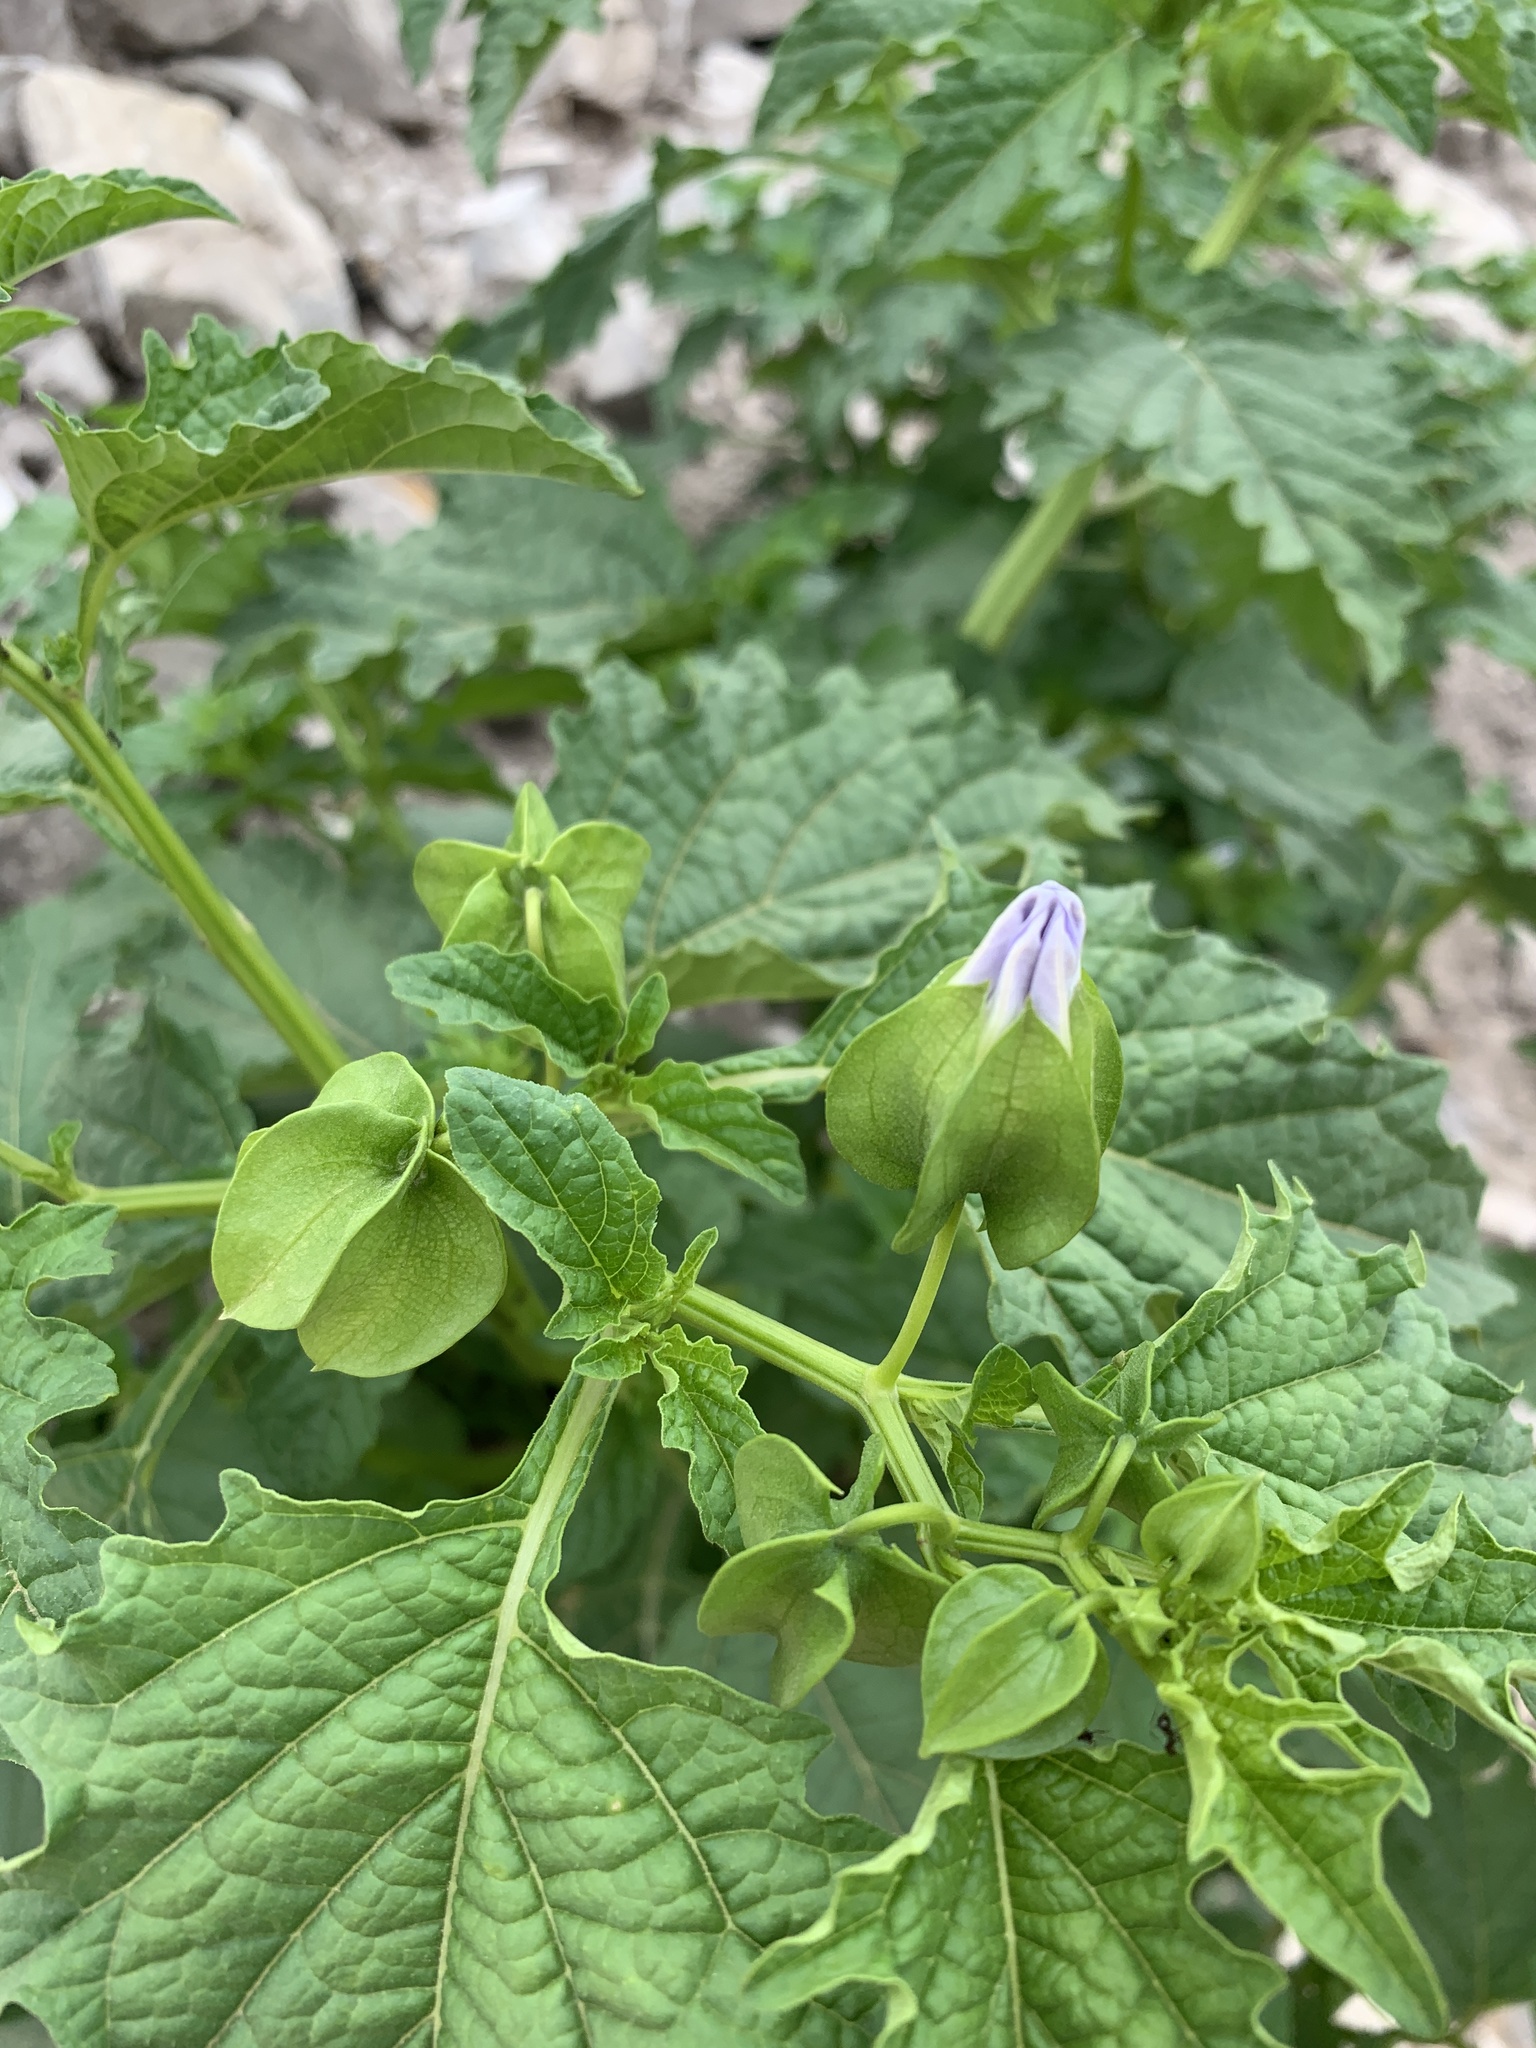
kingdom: Plantae
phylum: Tracheophyta
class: Magnoliopsida
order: Solanales
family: Solanaceae
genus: Nicandra
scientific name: Nicandra physalodes
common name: Apple-of-peru
